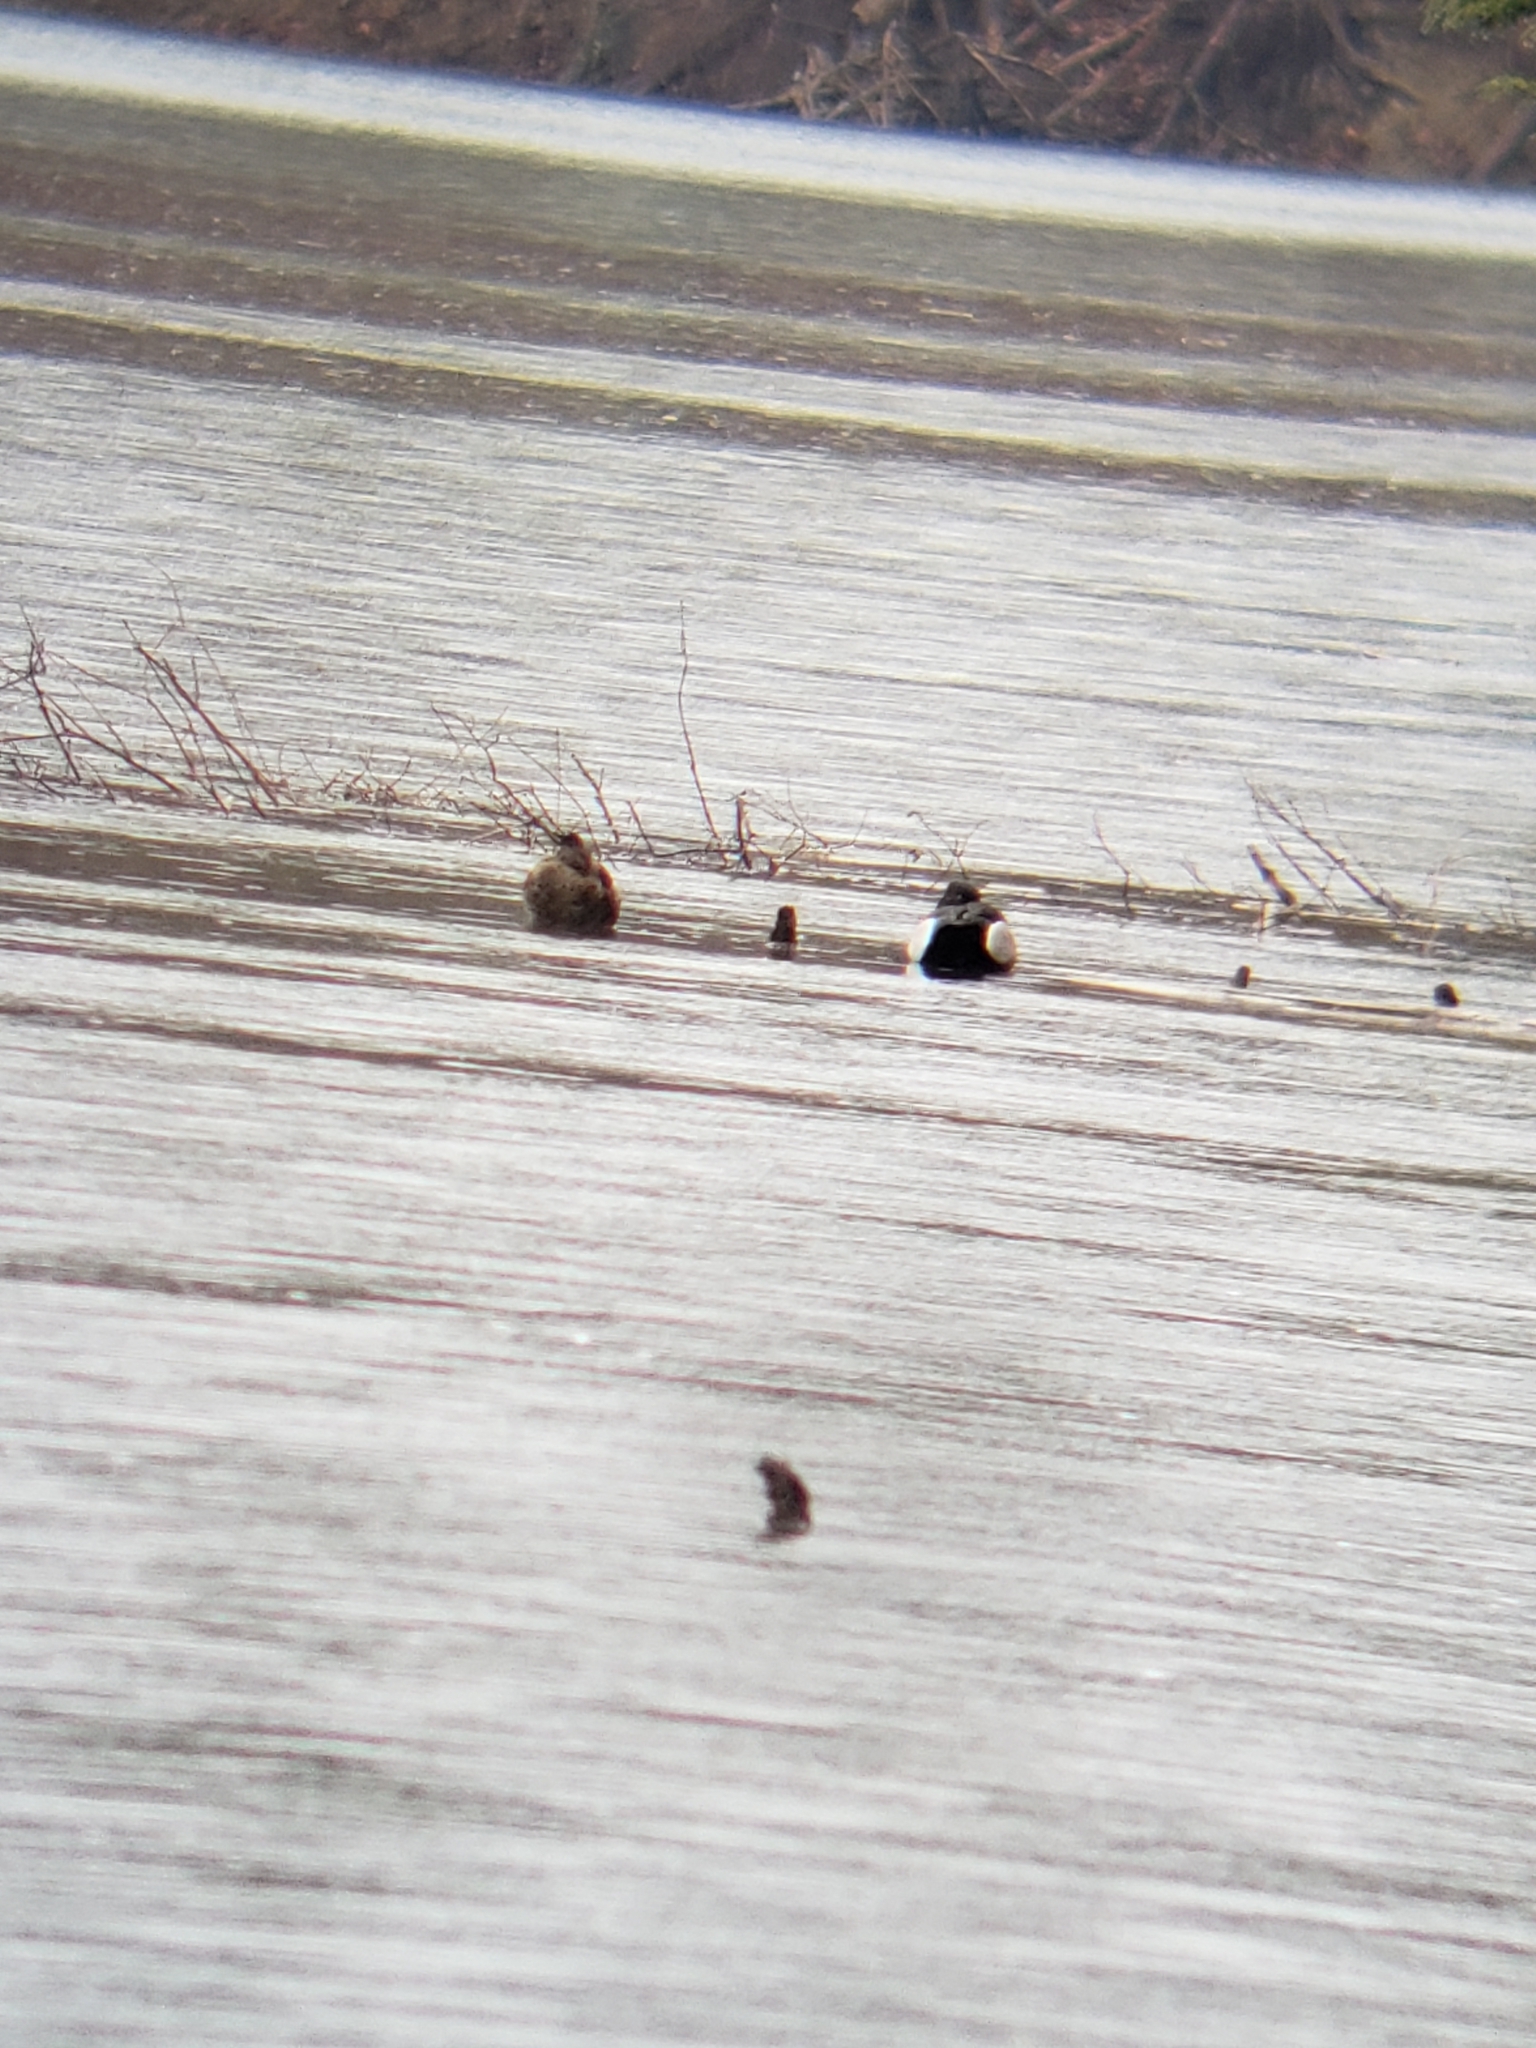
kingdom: Animalia
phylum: Chordata
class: Aves
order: Anseriformes
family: Anatidae
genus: Aythya
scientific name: Aythya collaris
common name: Ring-necked duck
